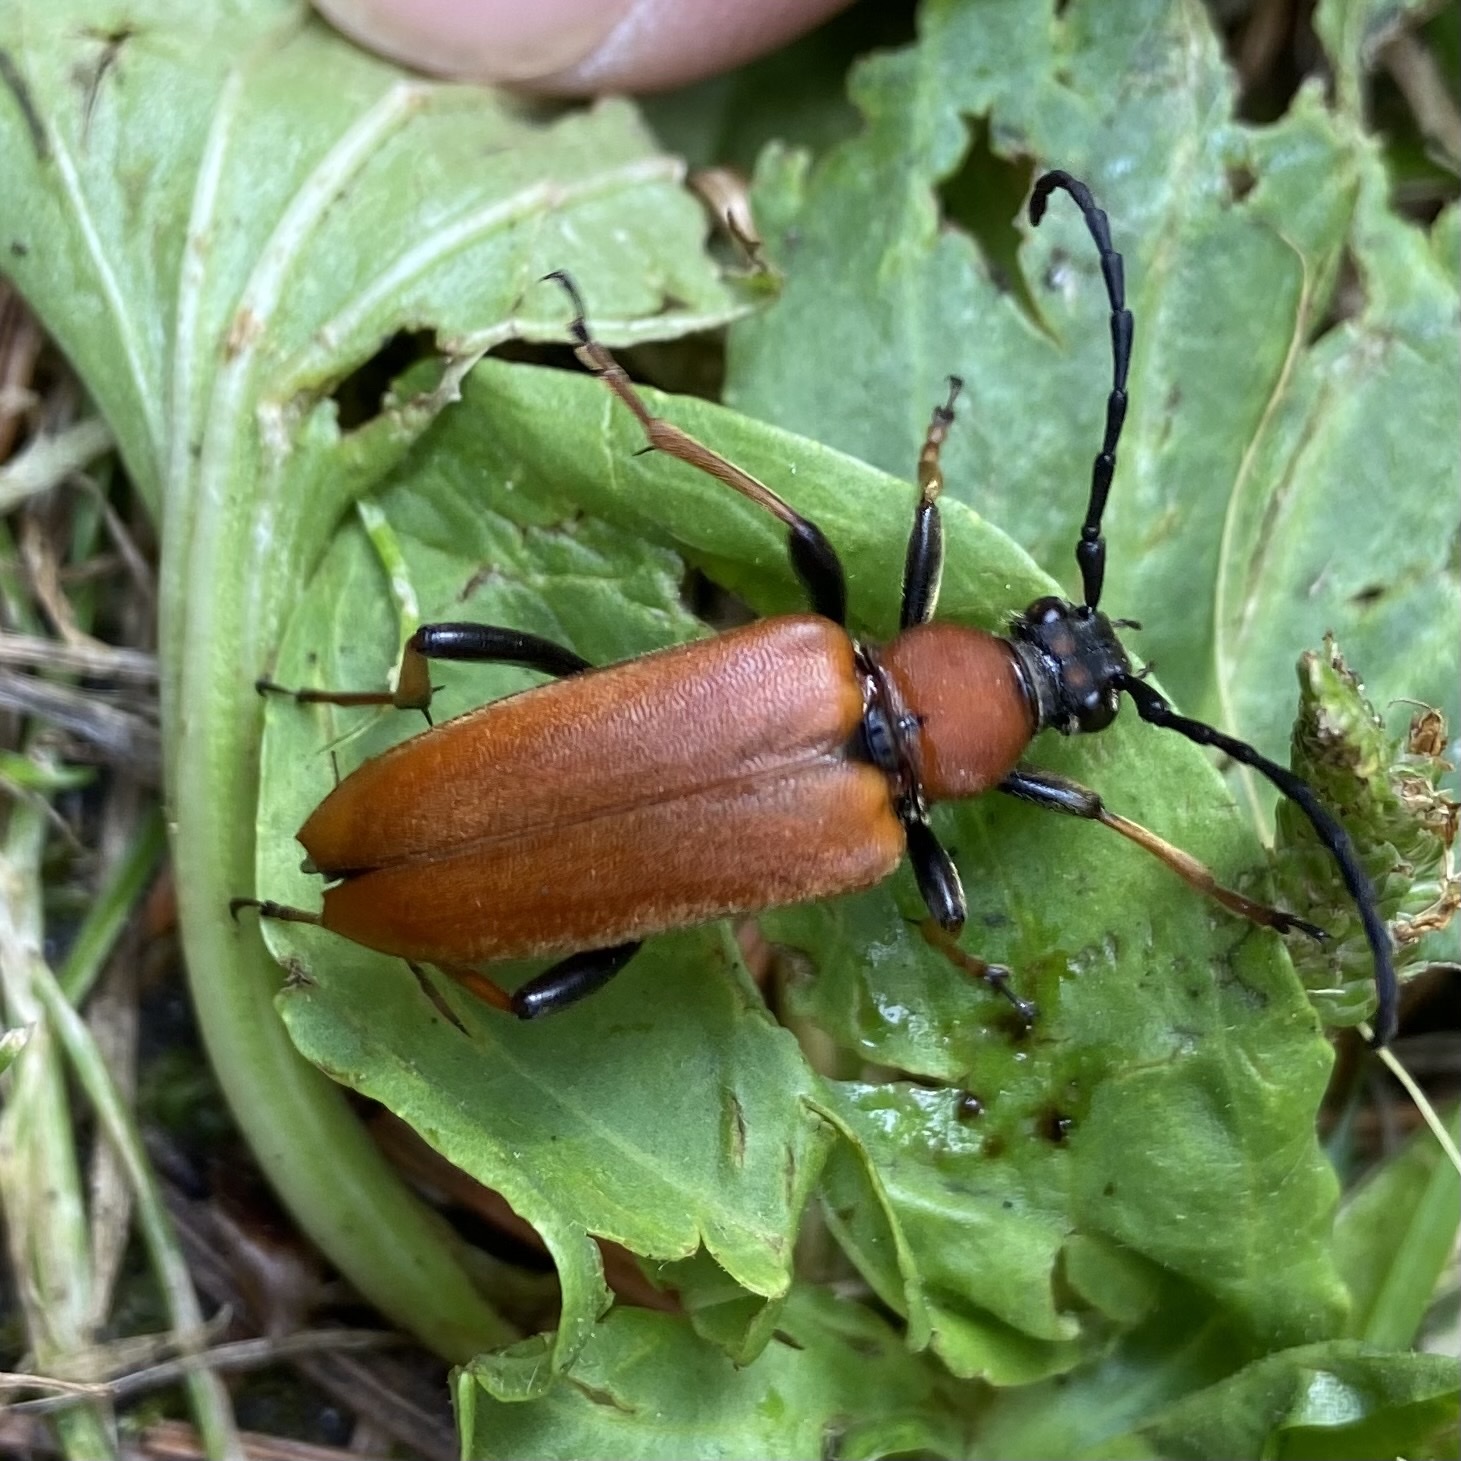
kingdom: Animalia
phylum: Arthropoda
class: Insecta
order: Coleoptera
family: Cerambycidae
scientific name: Cerambycidae
